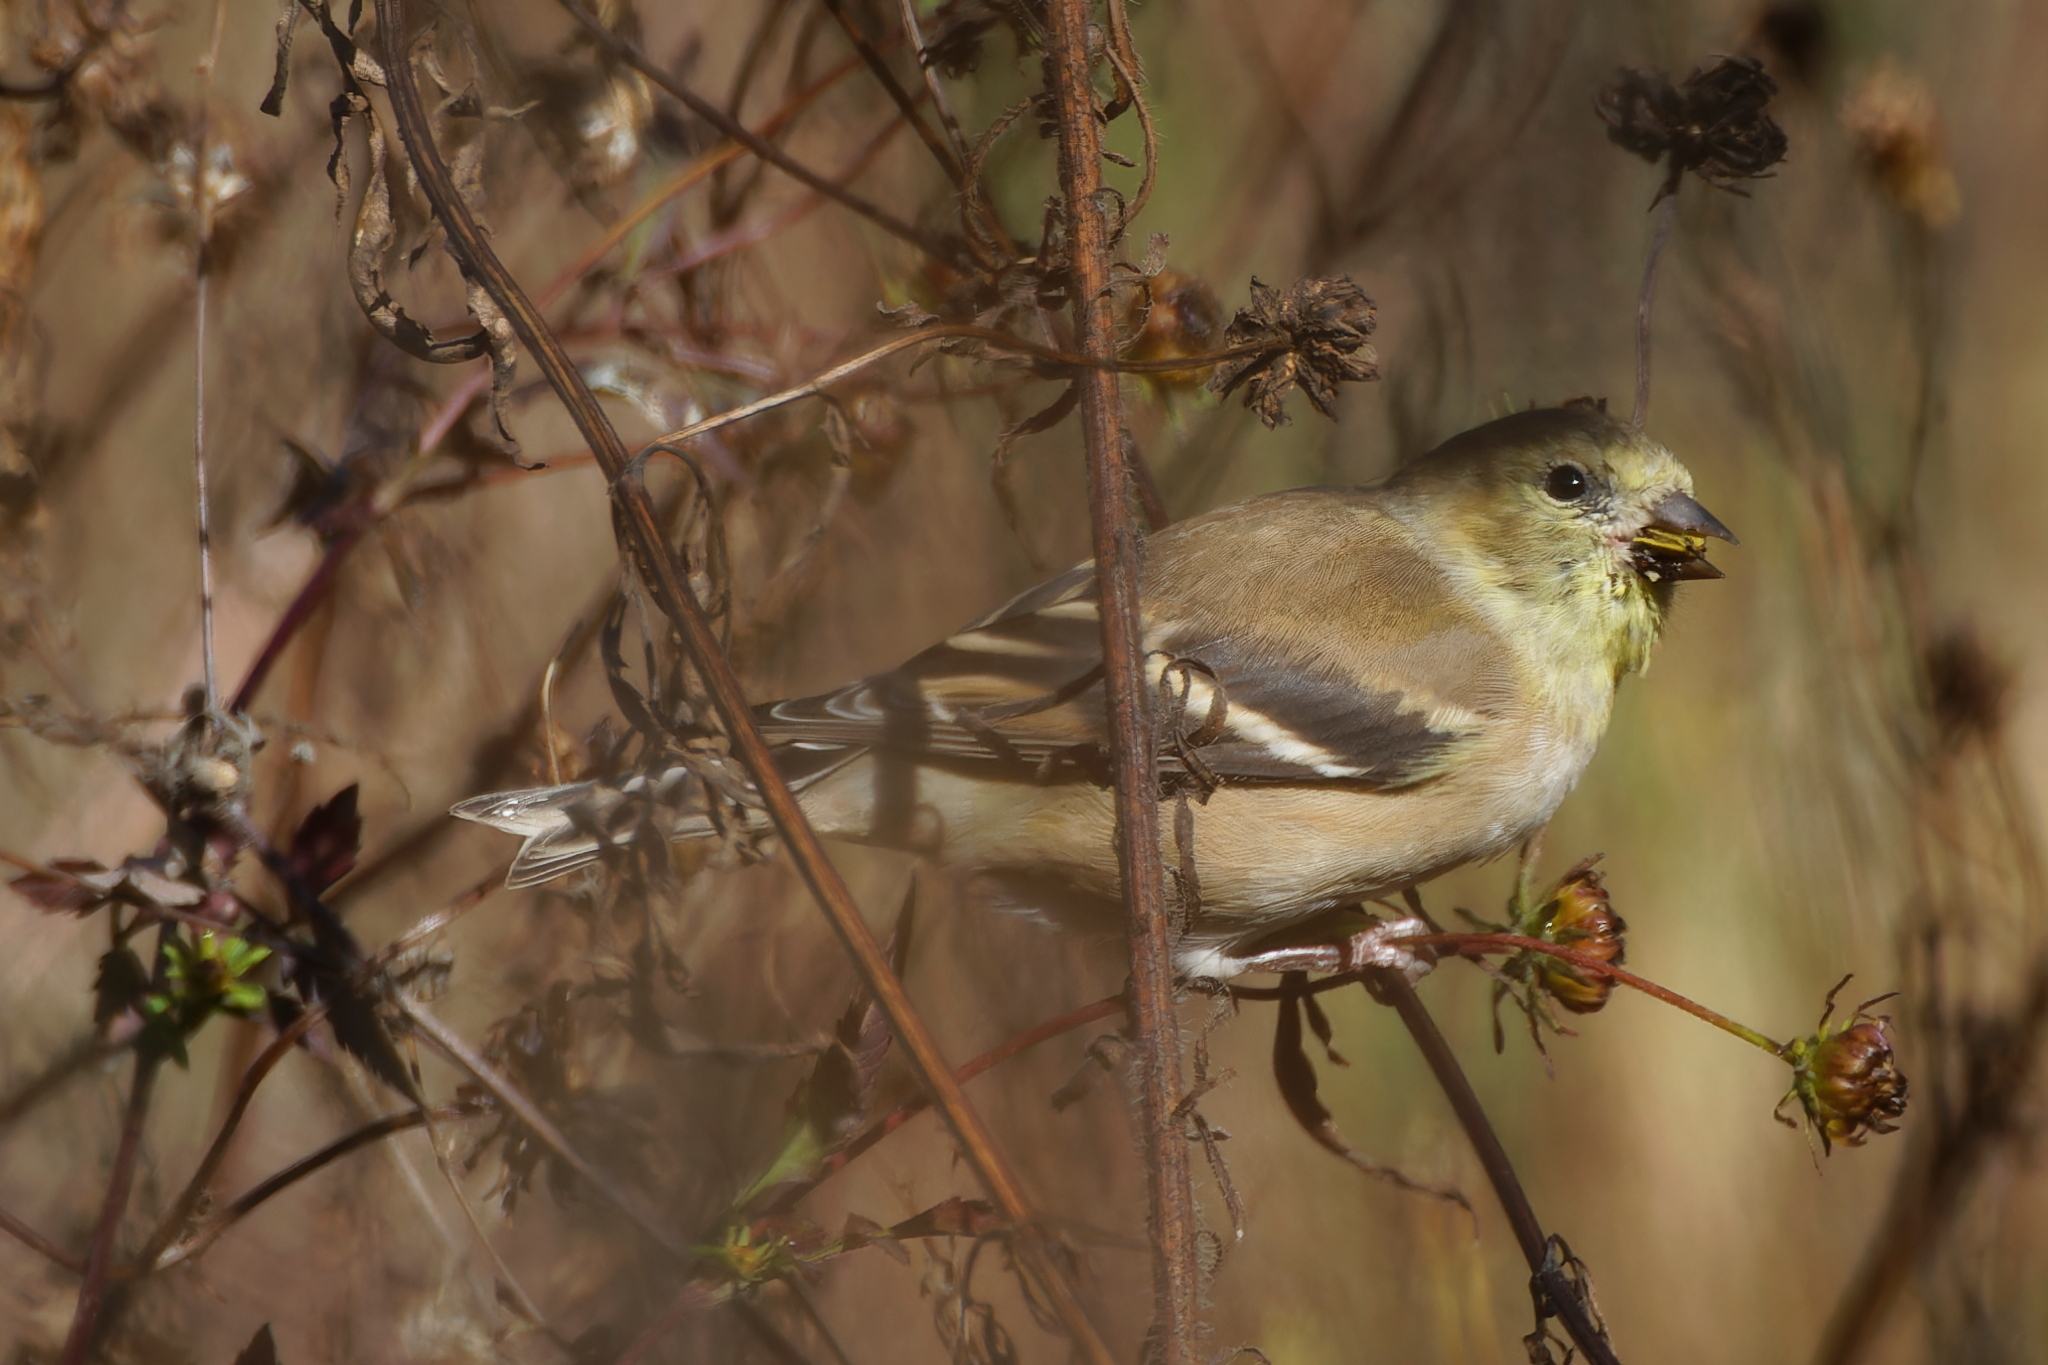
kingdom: Animalia
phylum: Chordata
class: Aves
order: Passeriformes
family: Fringillidae
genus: Spinus
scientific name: Spinus tristis
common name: American goldfinch
